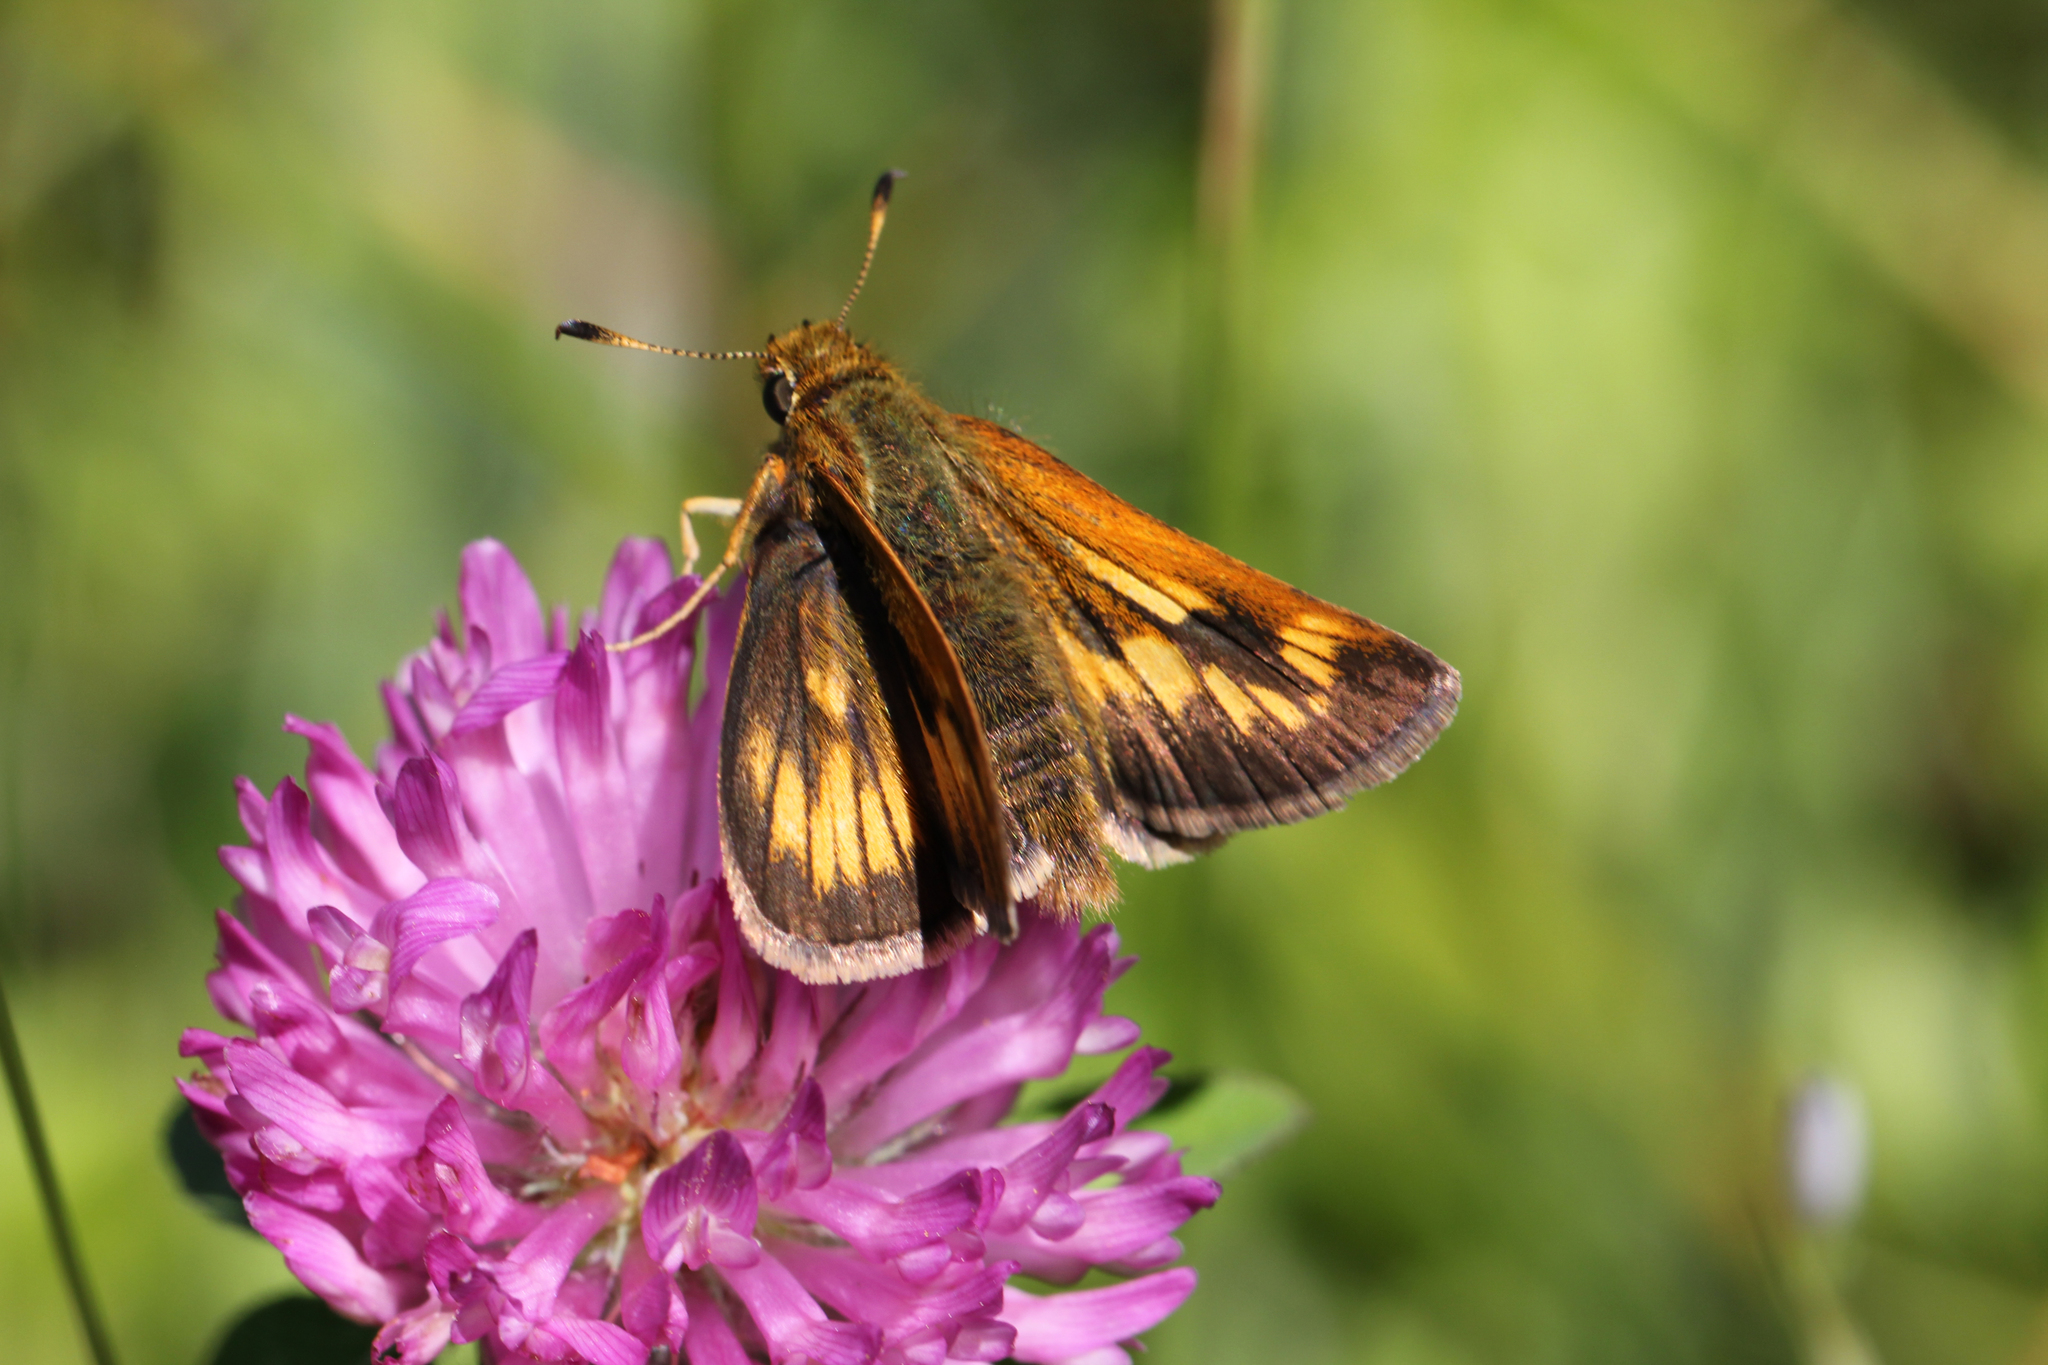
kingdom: Animalia
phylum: Arthropoda
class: Insecta
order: Lepidoptera
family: Hesperiidae
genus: Polites
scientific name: Polites mystic
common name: Long dash
